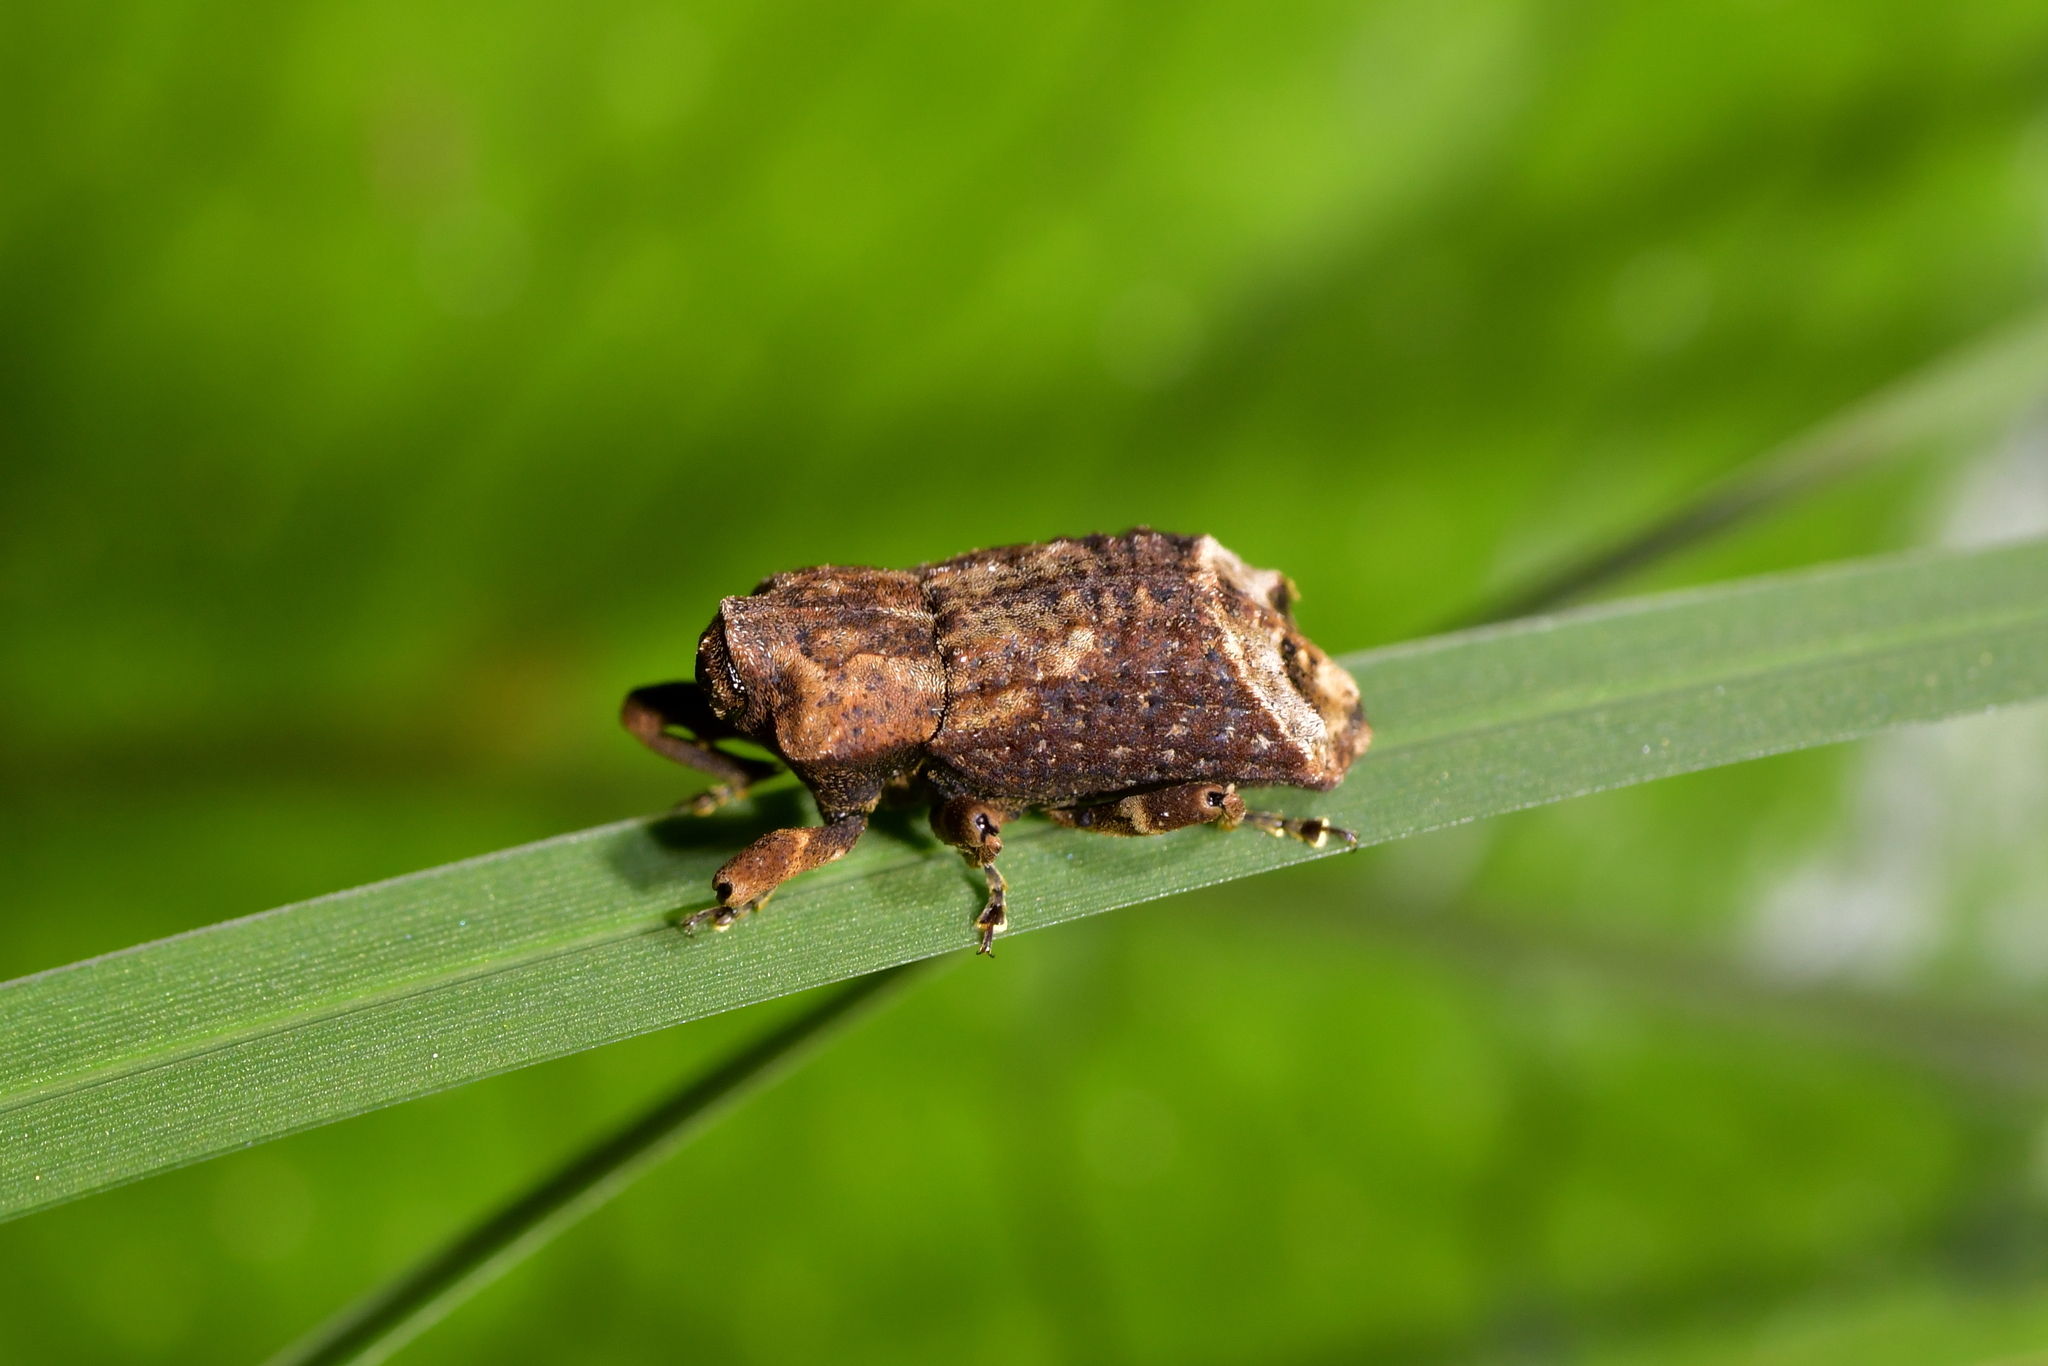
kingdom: Animalia
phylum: Arthropoda
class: Insecta
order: Coleoptera
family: Curculionidae
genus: Ectopsis
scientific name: Ectopsis ferrugalis
